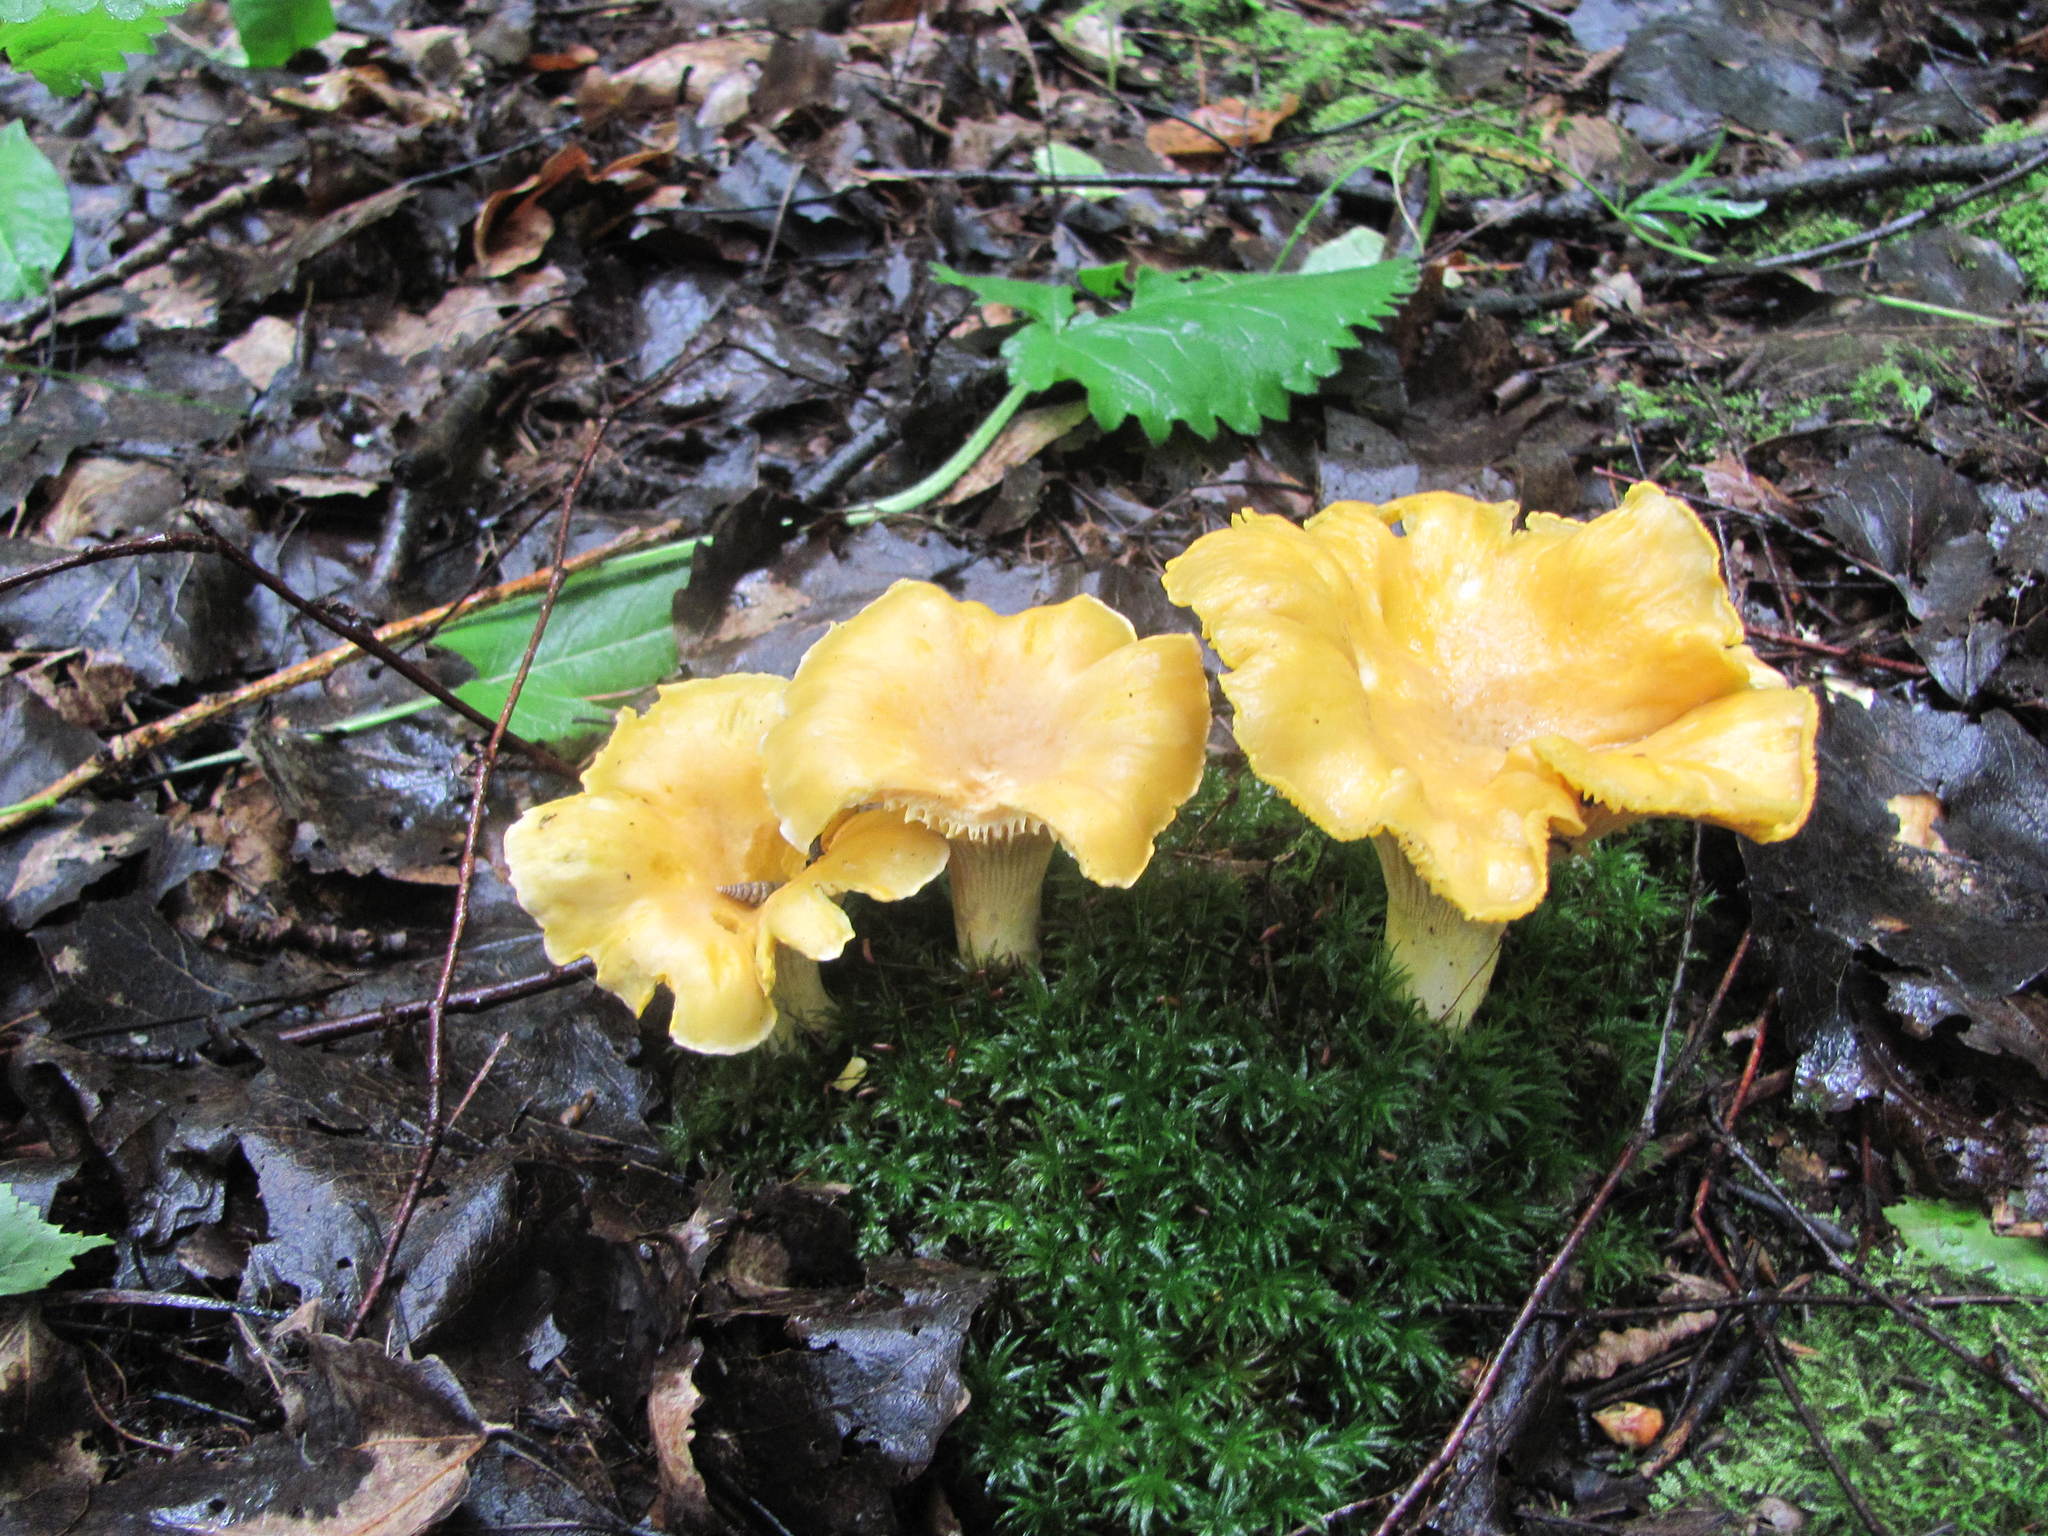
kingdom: Fungi
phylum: Basidiomycota
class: Agaricomycetes
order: Cantharellales
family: Hydnaceae
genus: Cantharellus
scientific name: Cantharellus cibarius
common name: Chanterelle
